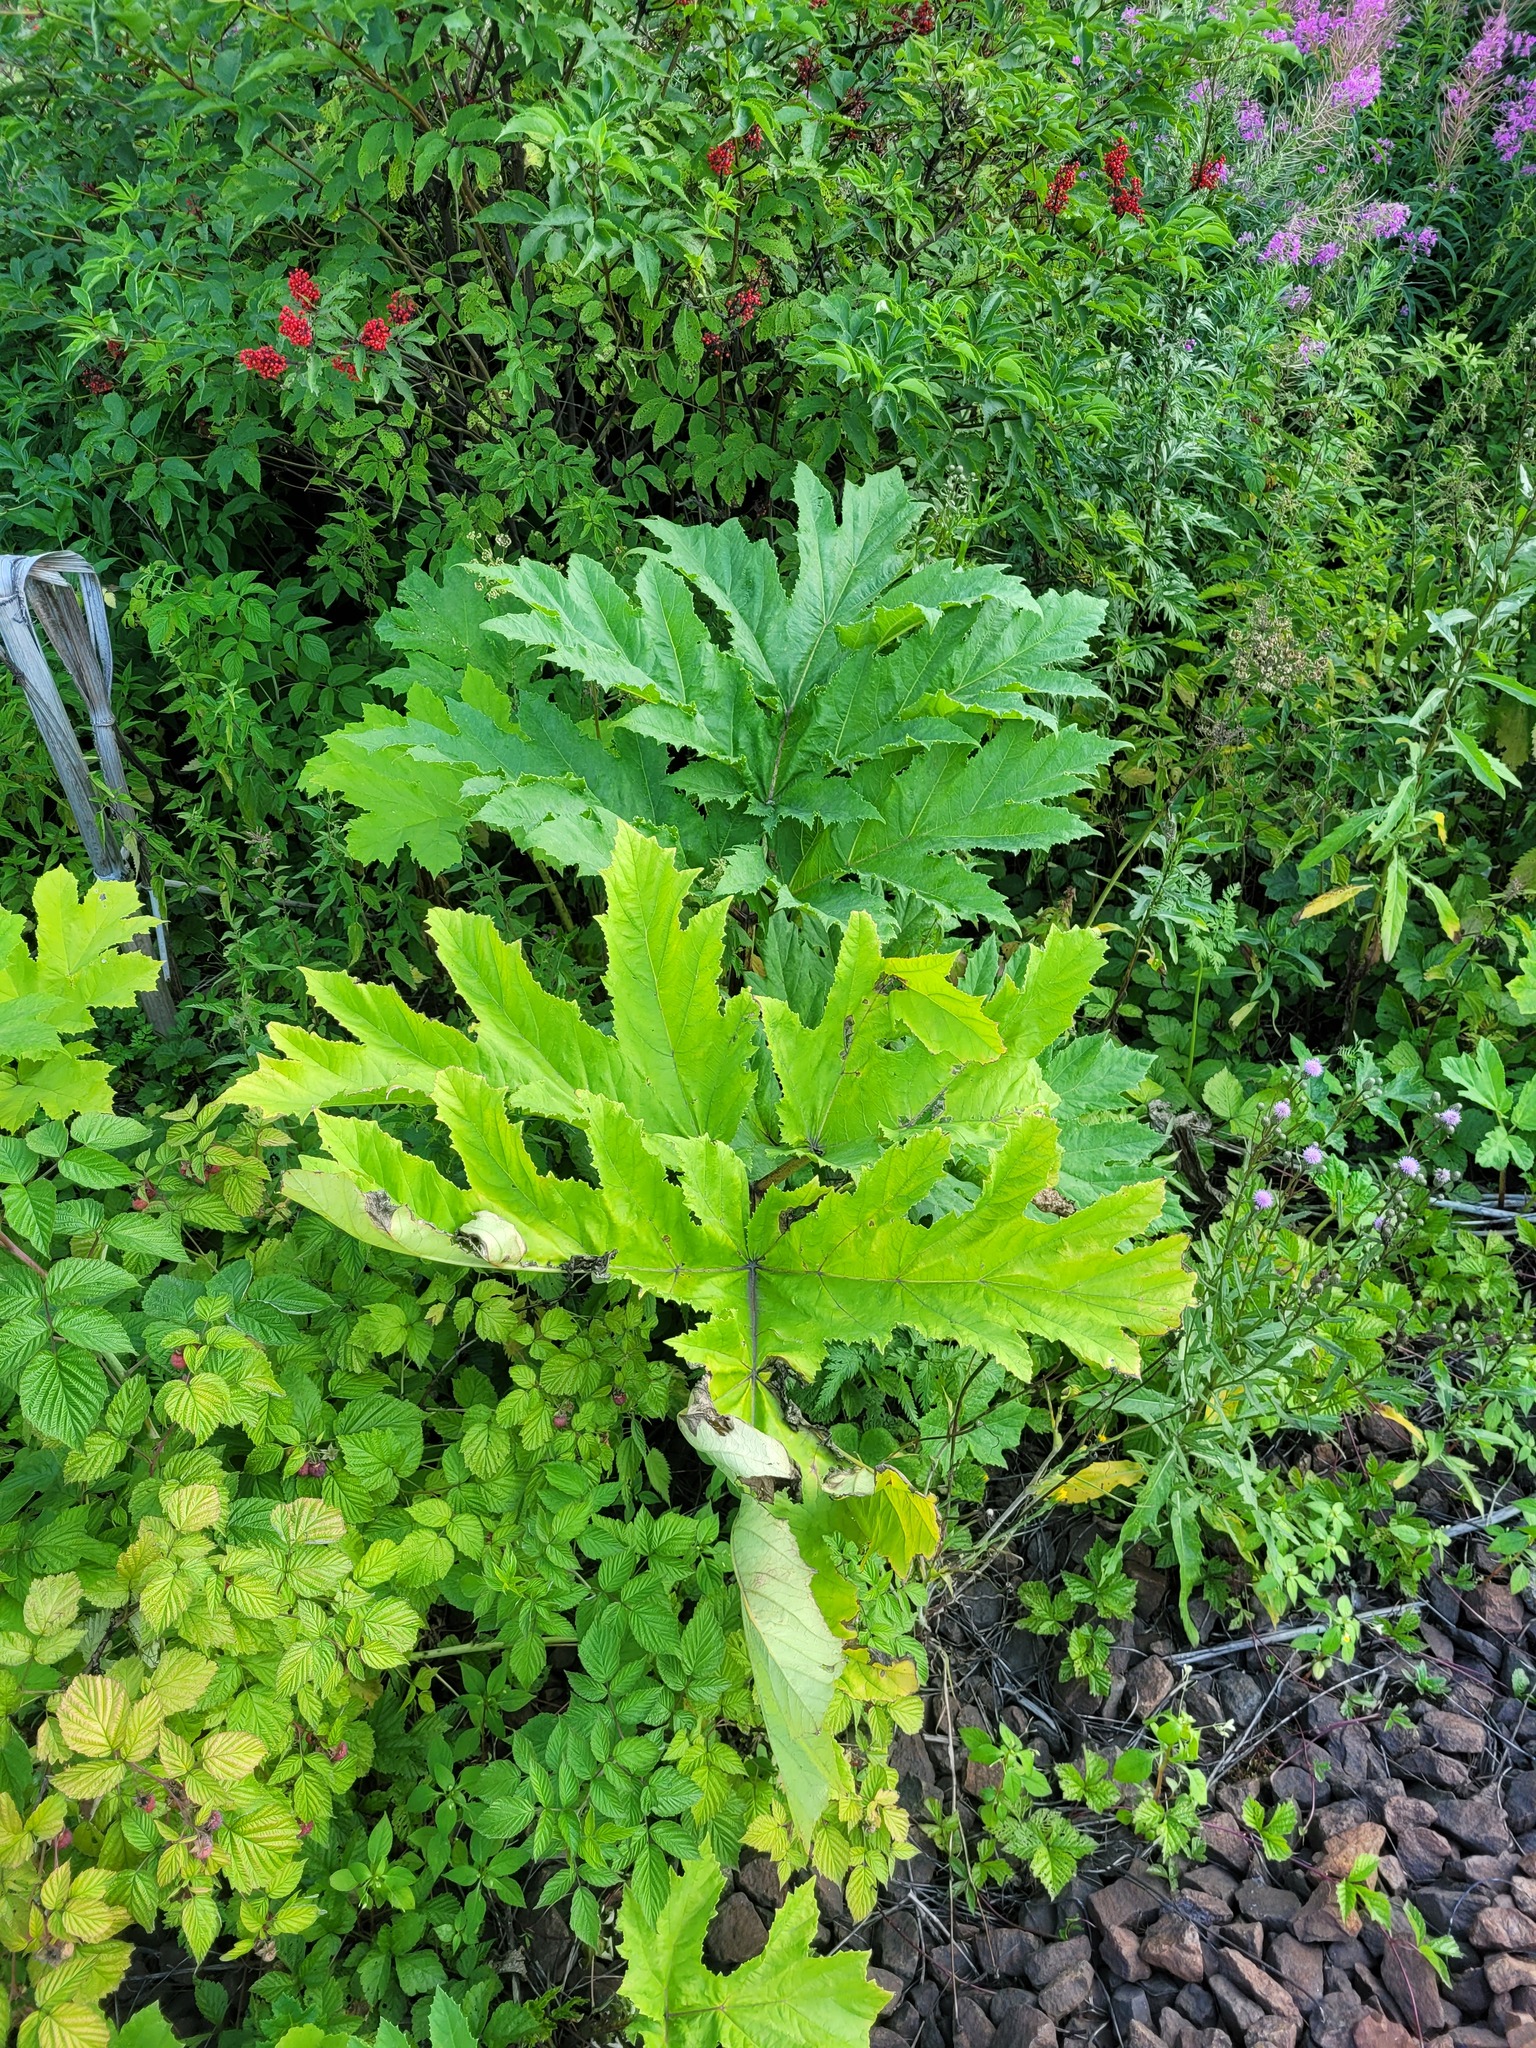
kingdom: Plantae
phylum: Tracheophyta
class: Magnoliopsida
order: Apiales
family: Apiaceae
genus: Heracleum
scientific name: Heracleum sosnowskyi
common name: Sosnowsky's hogweed
